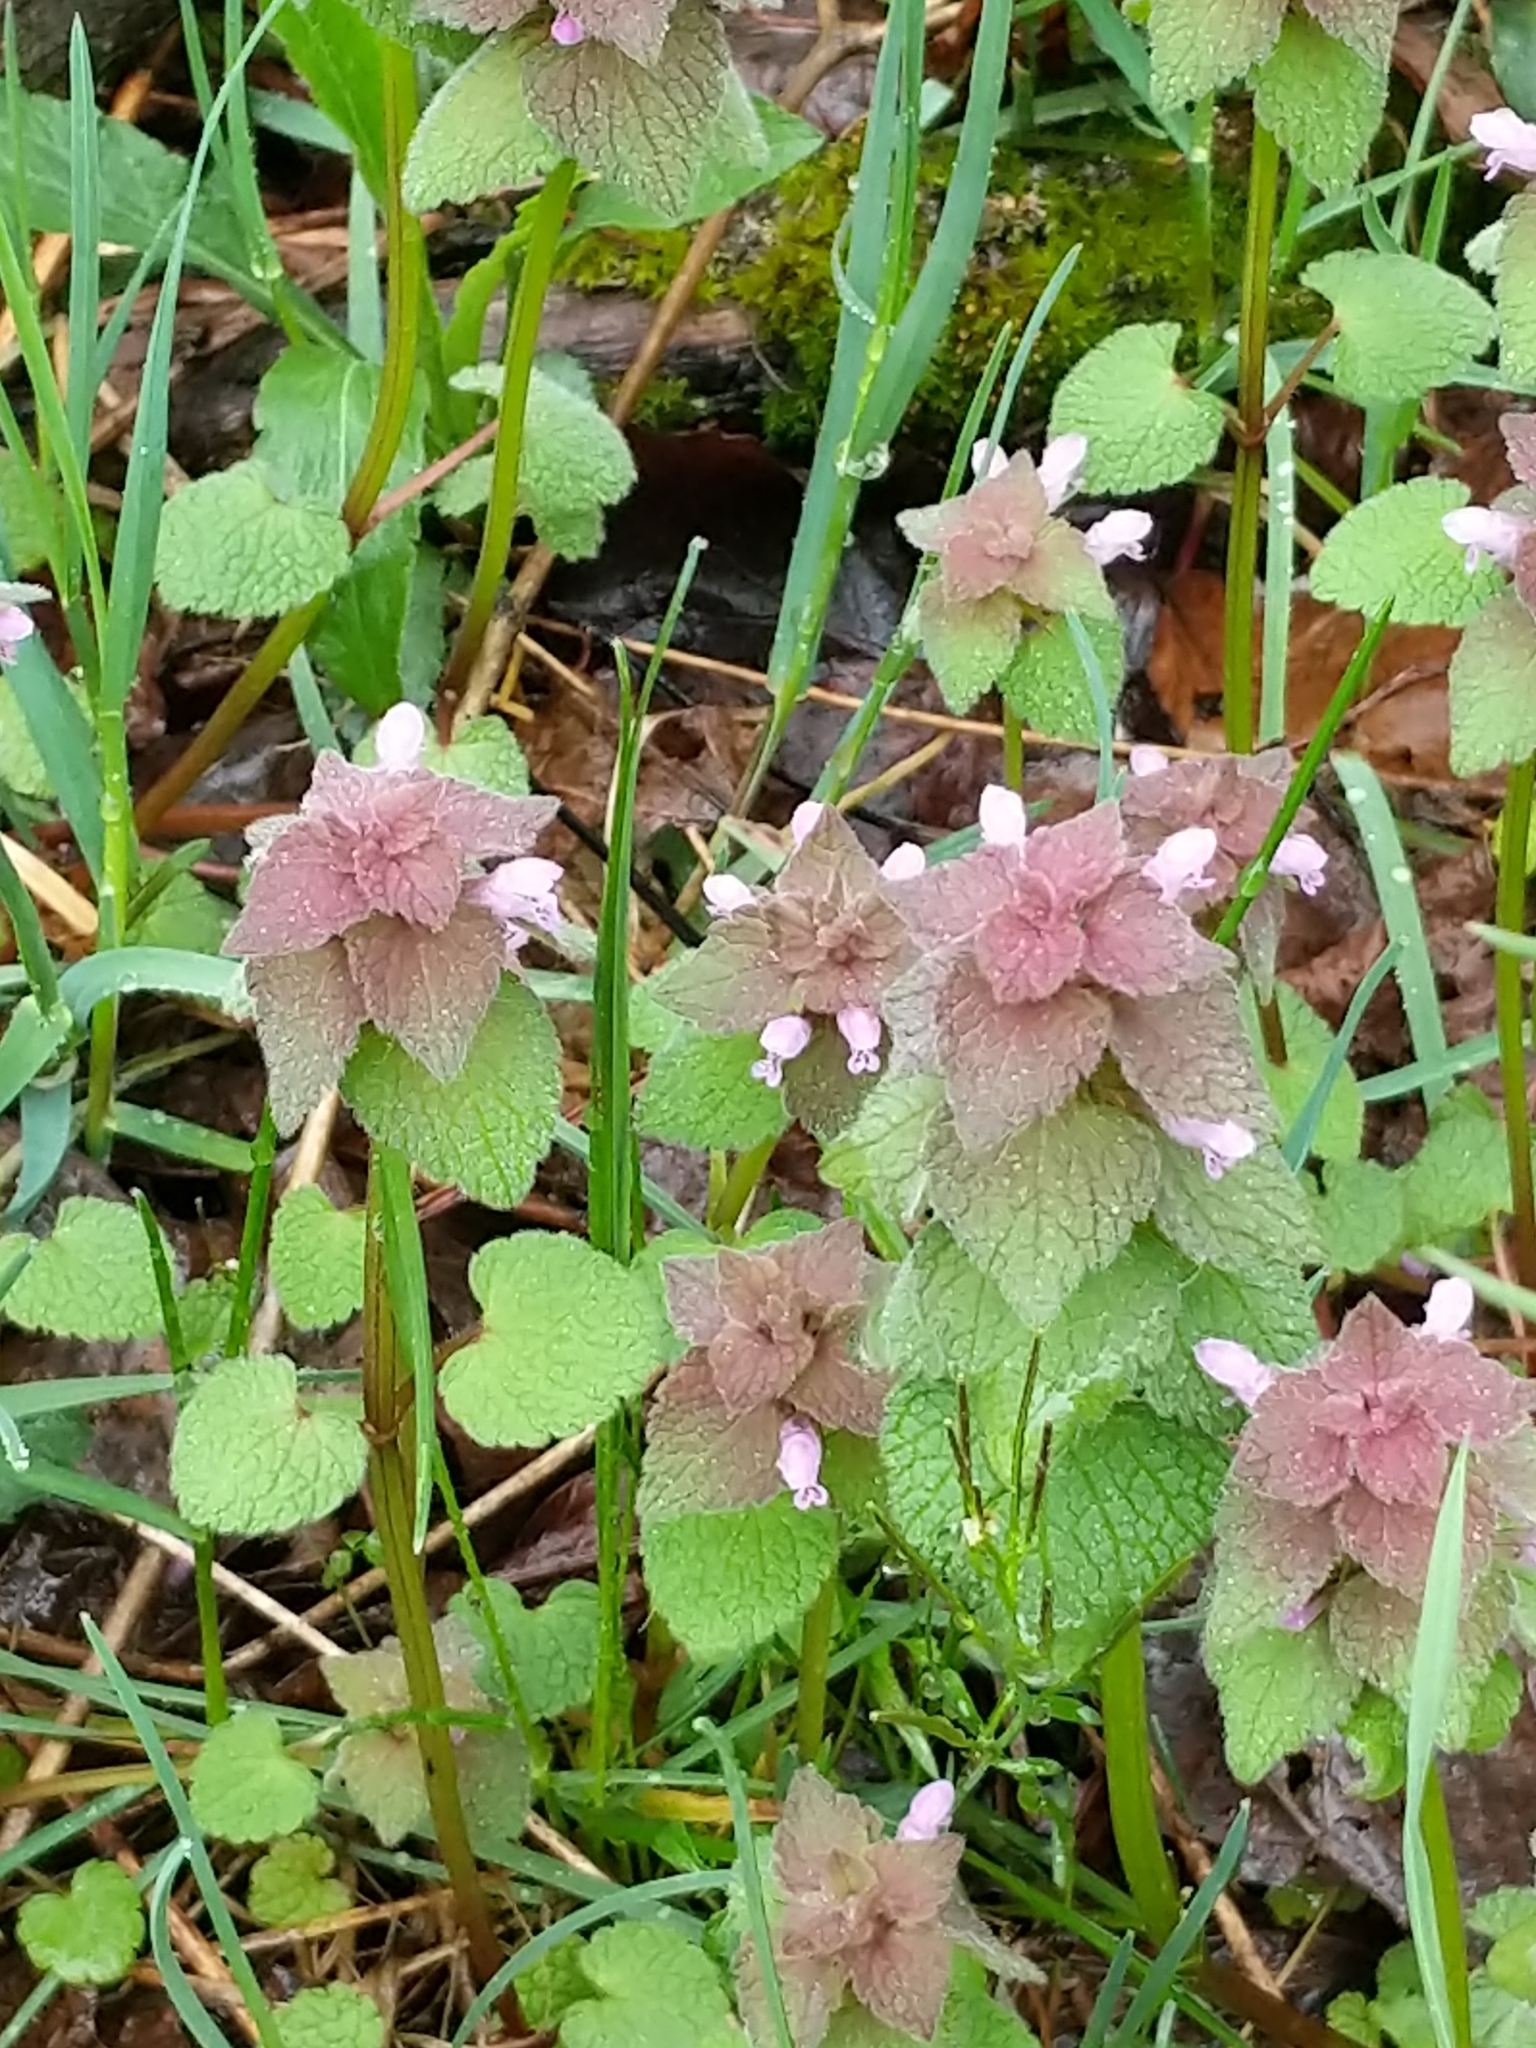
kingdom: Plantae
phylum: Tracheophyta
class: Magnoliopsida
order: Lamiales
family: Lamiaceae
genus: Lamium
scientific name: Lamium purpureum
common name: Red dead-nettle
